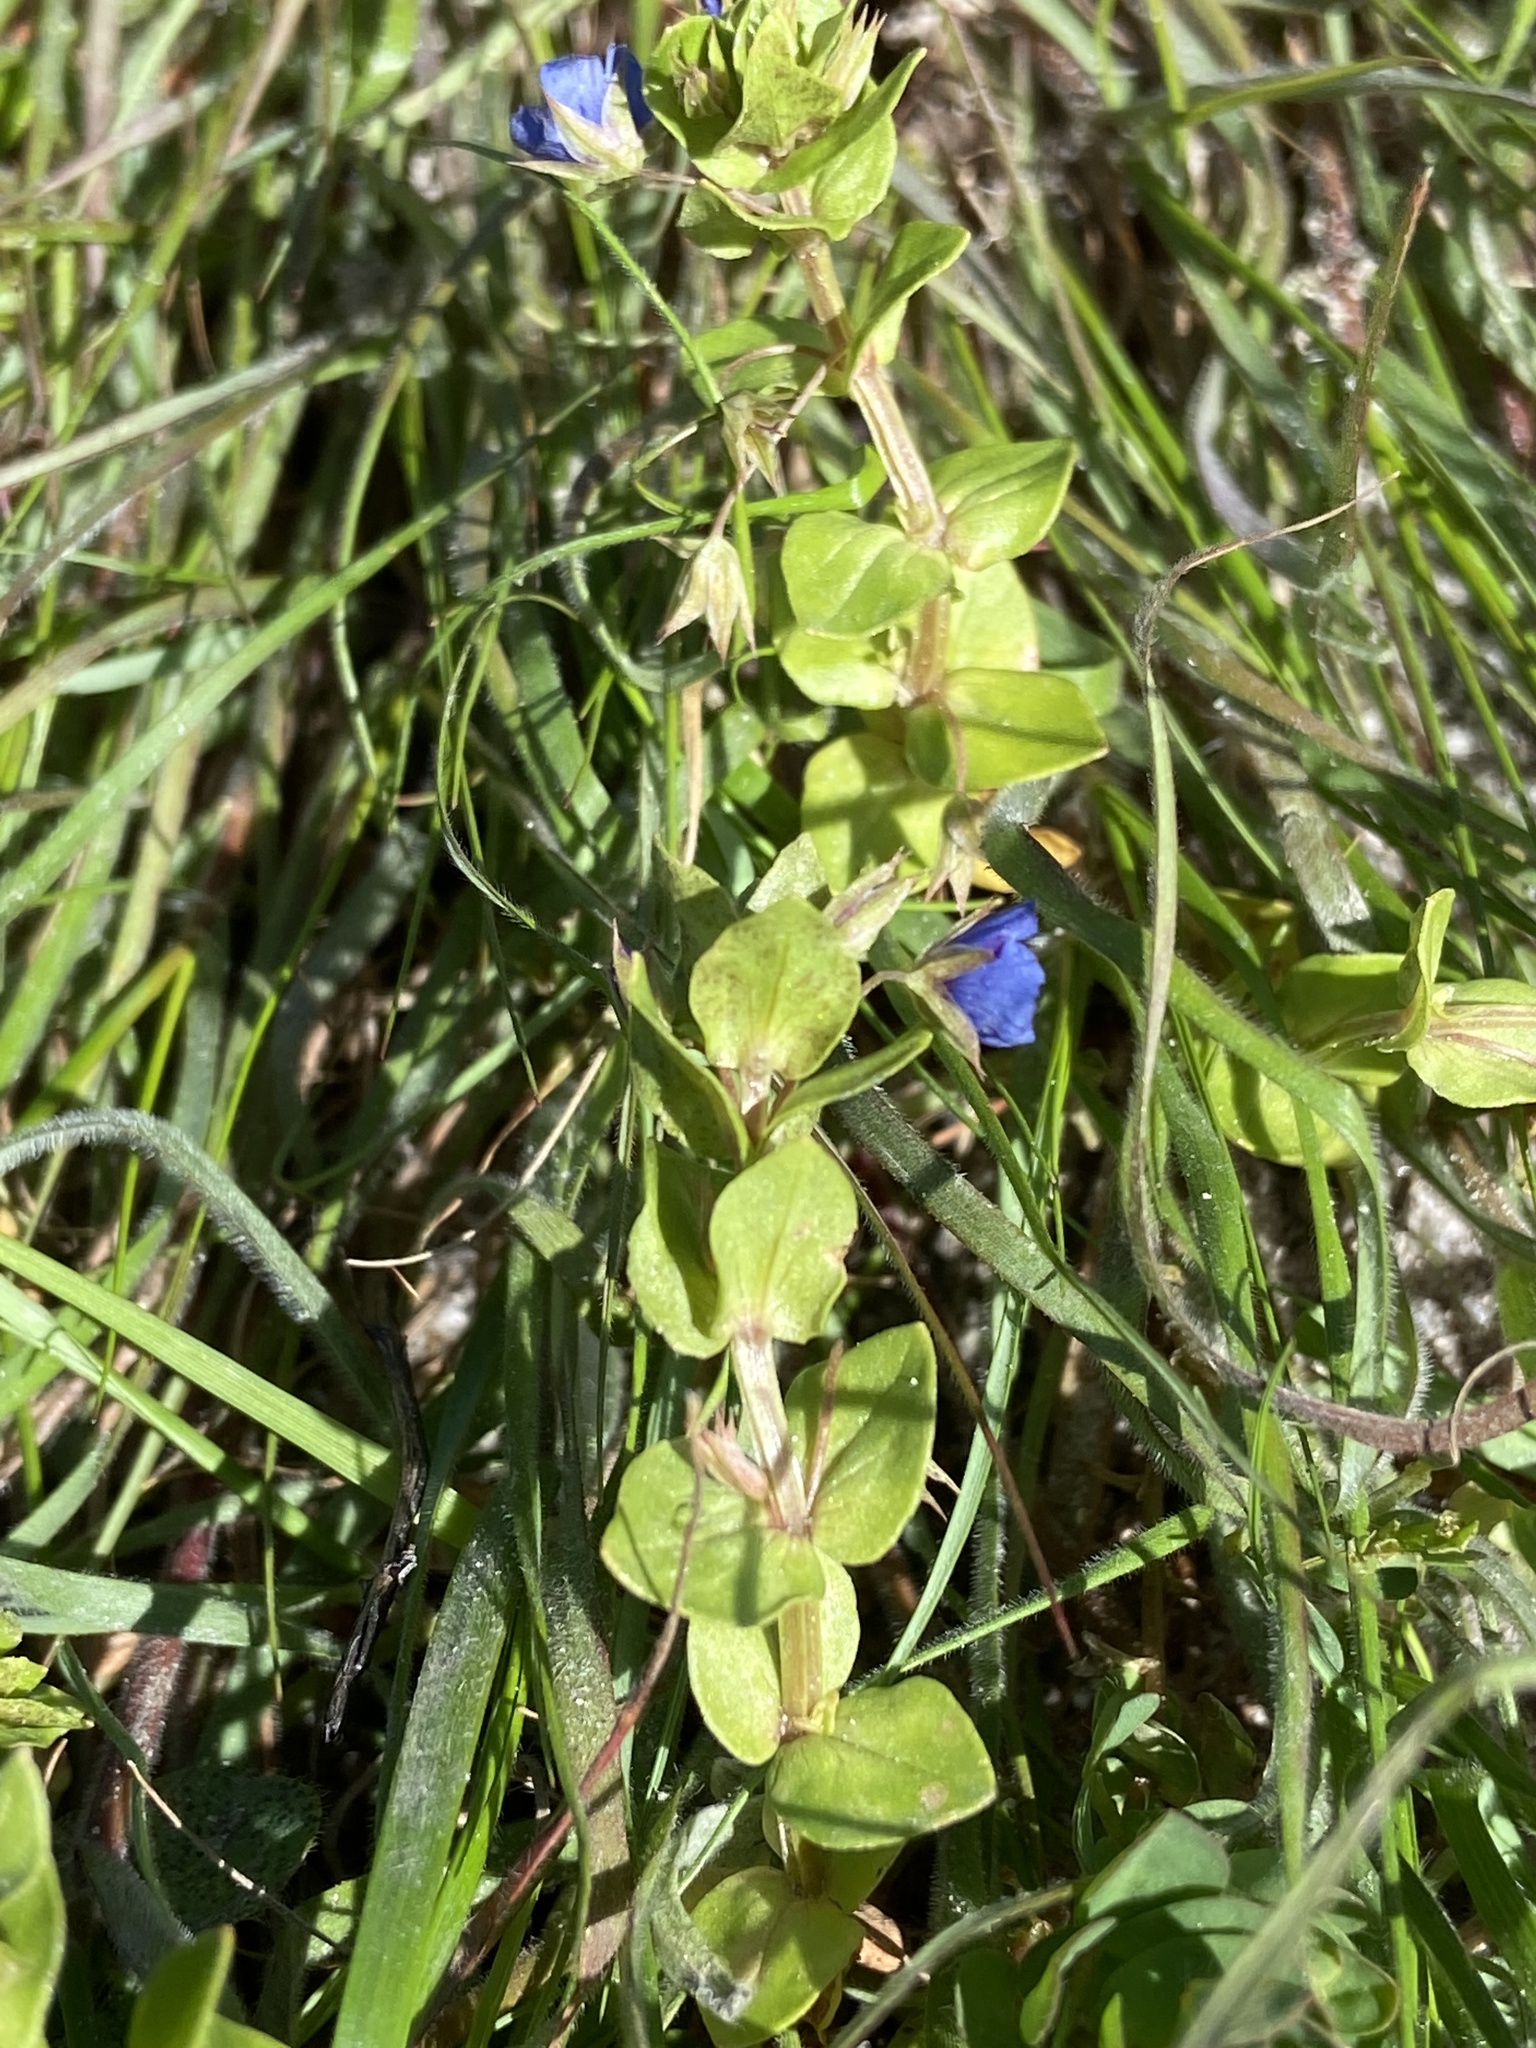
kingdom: Plantae
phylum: Tracheophyta
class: Magnoliopsida
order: Ericales
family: Primulaceae
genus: Lysimachia
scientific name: Lysimachia loeflingii
